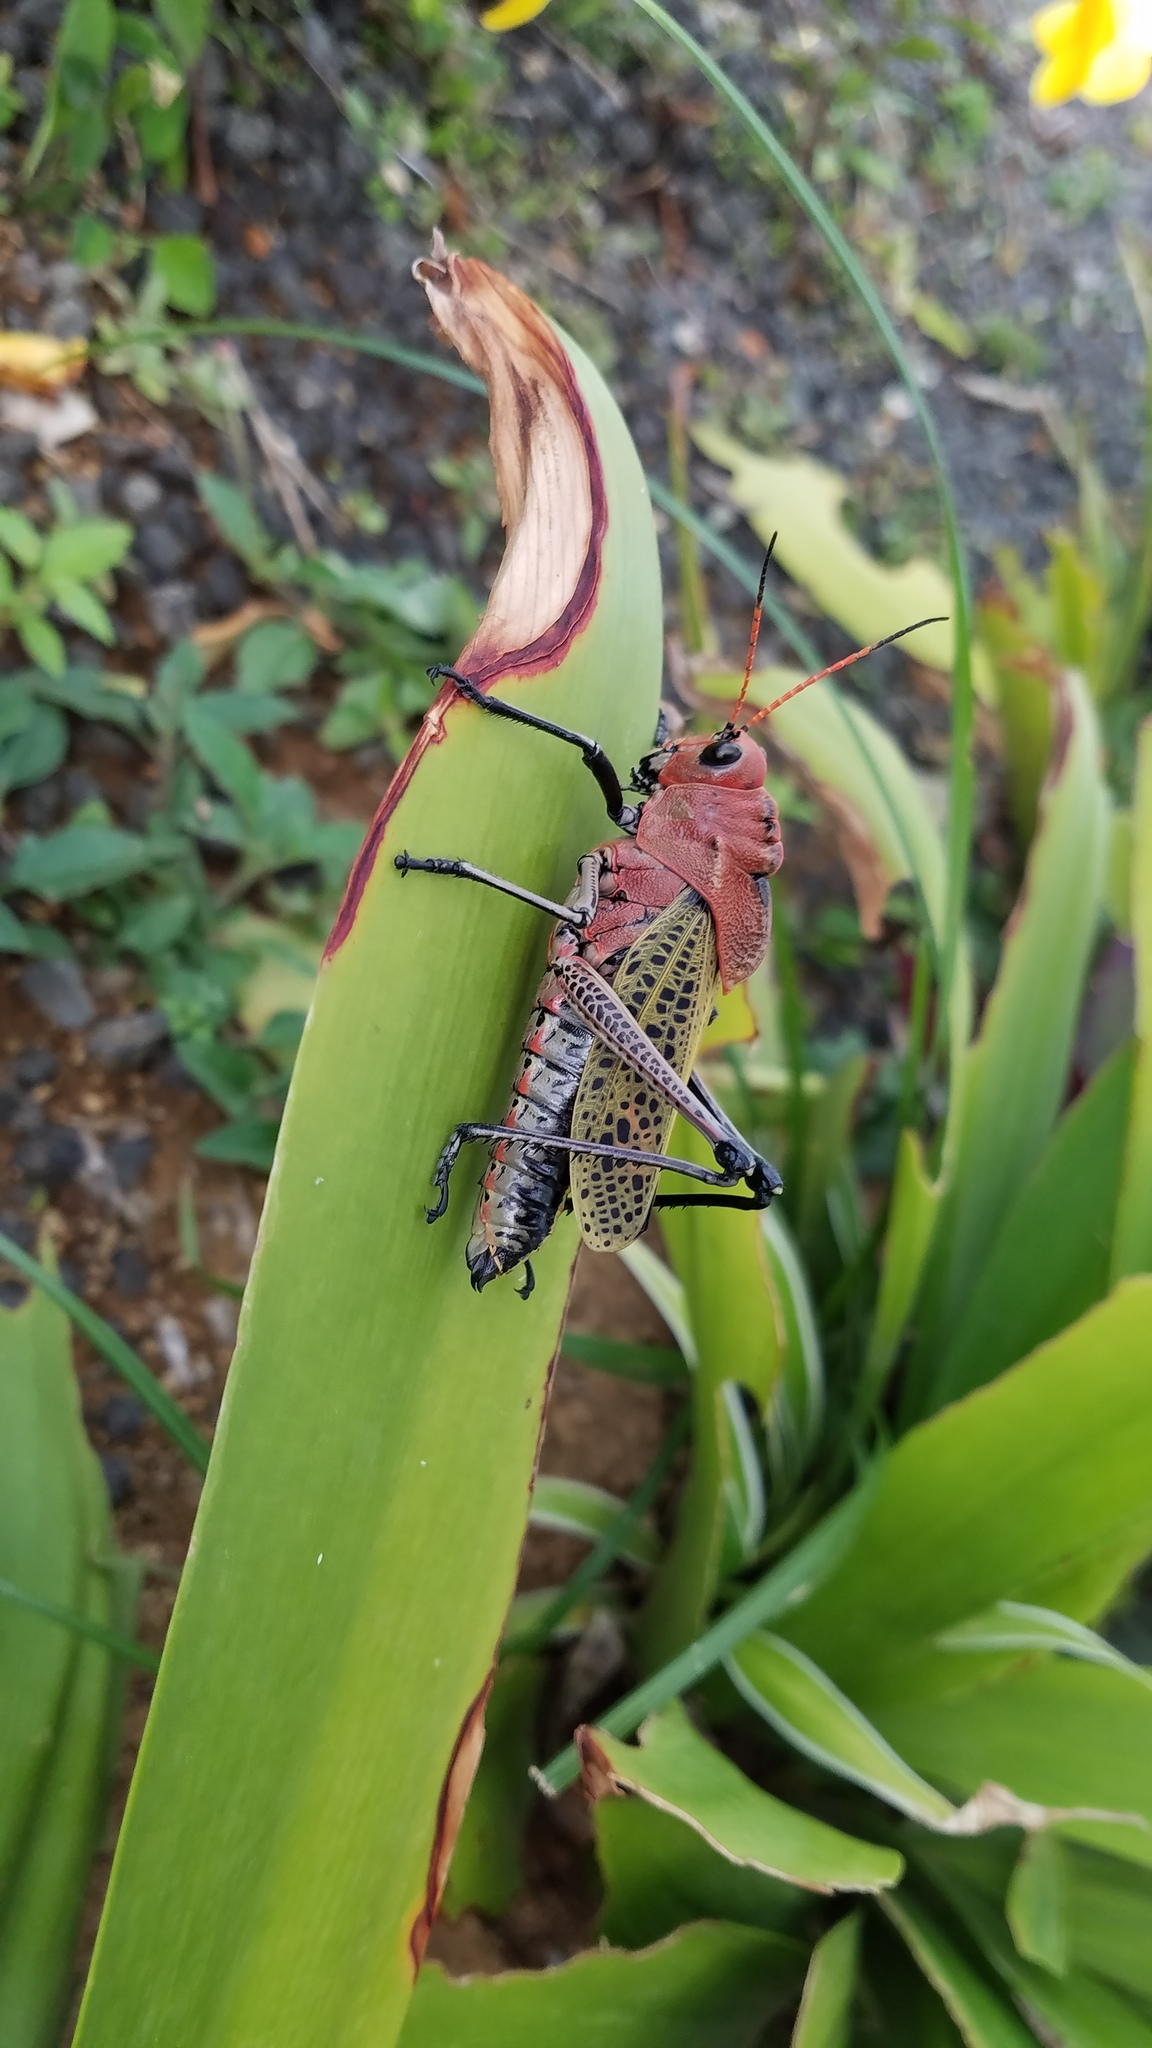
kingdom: Animalia
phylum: Arthropoda
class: Insecta
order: Orthoptera
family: Romaleidae
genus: Romalea
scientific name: Romalea
